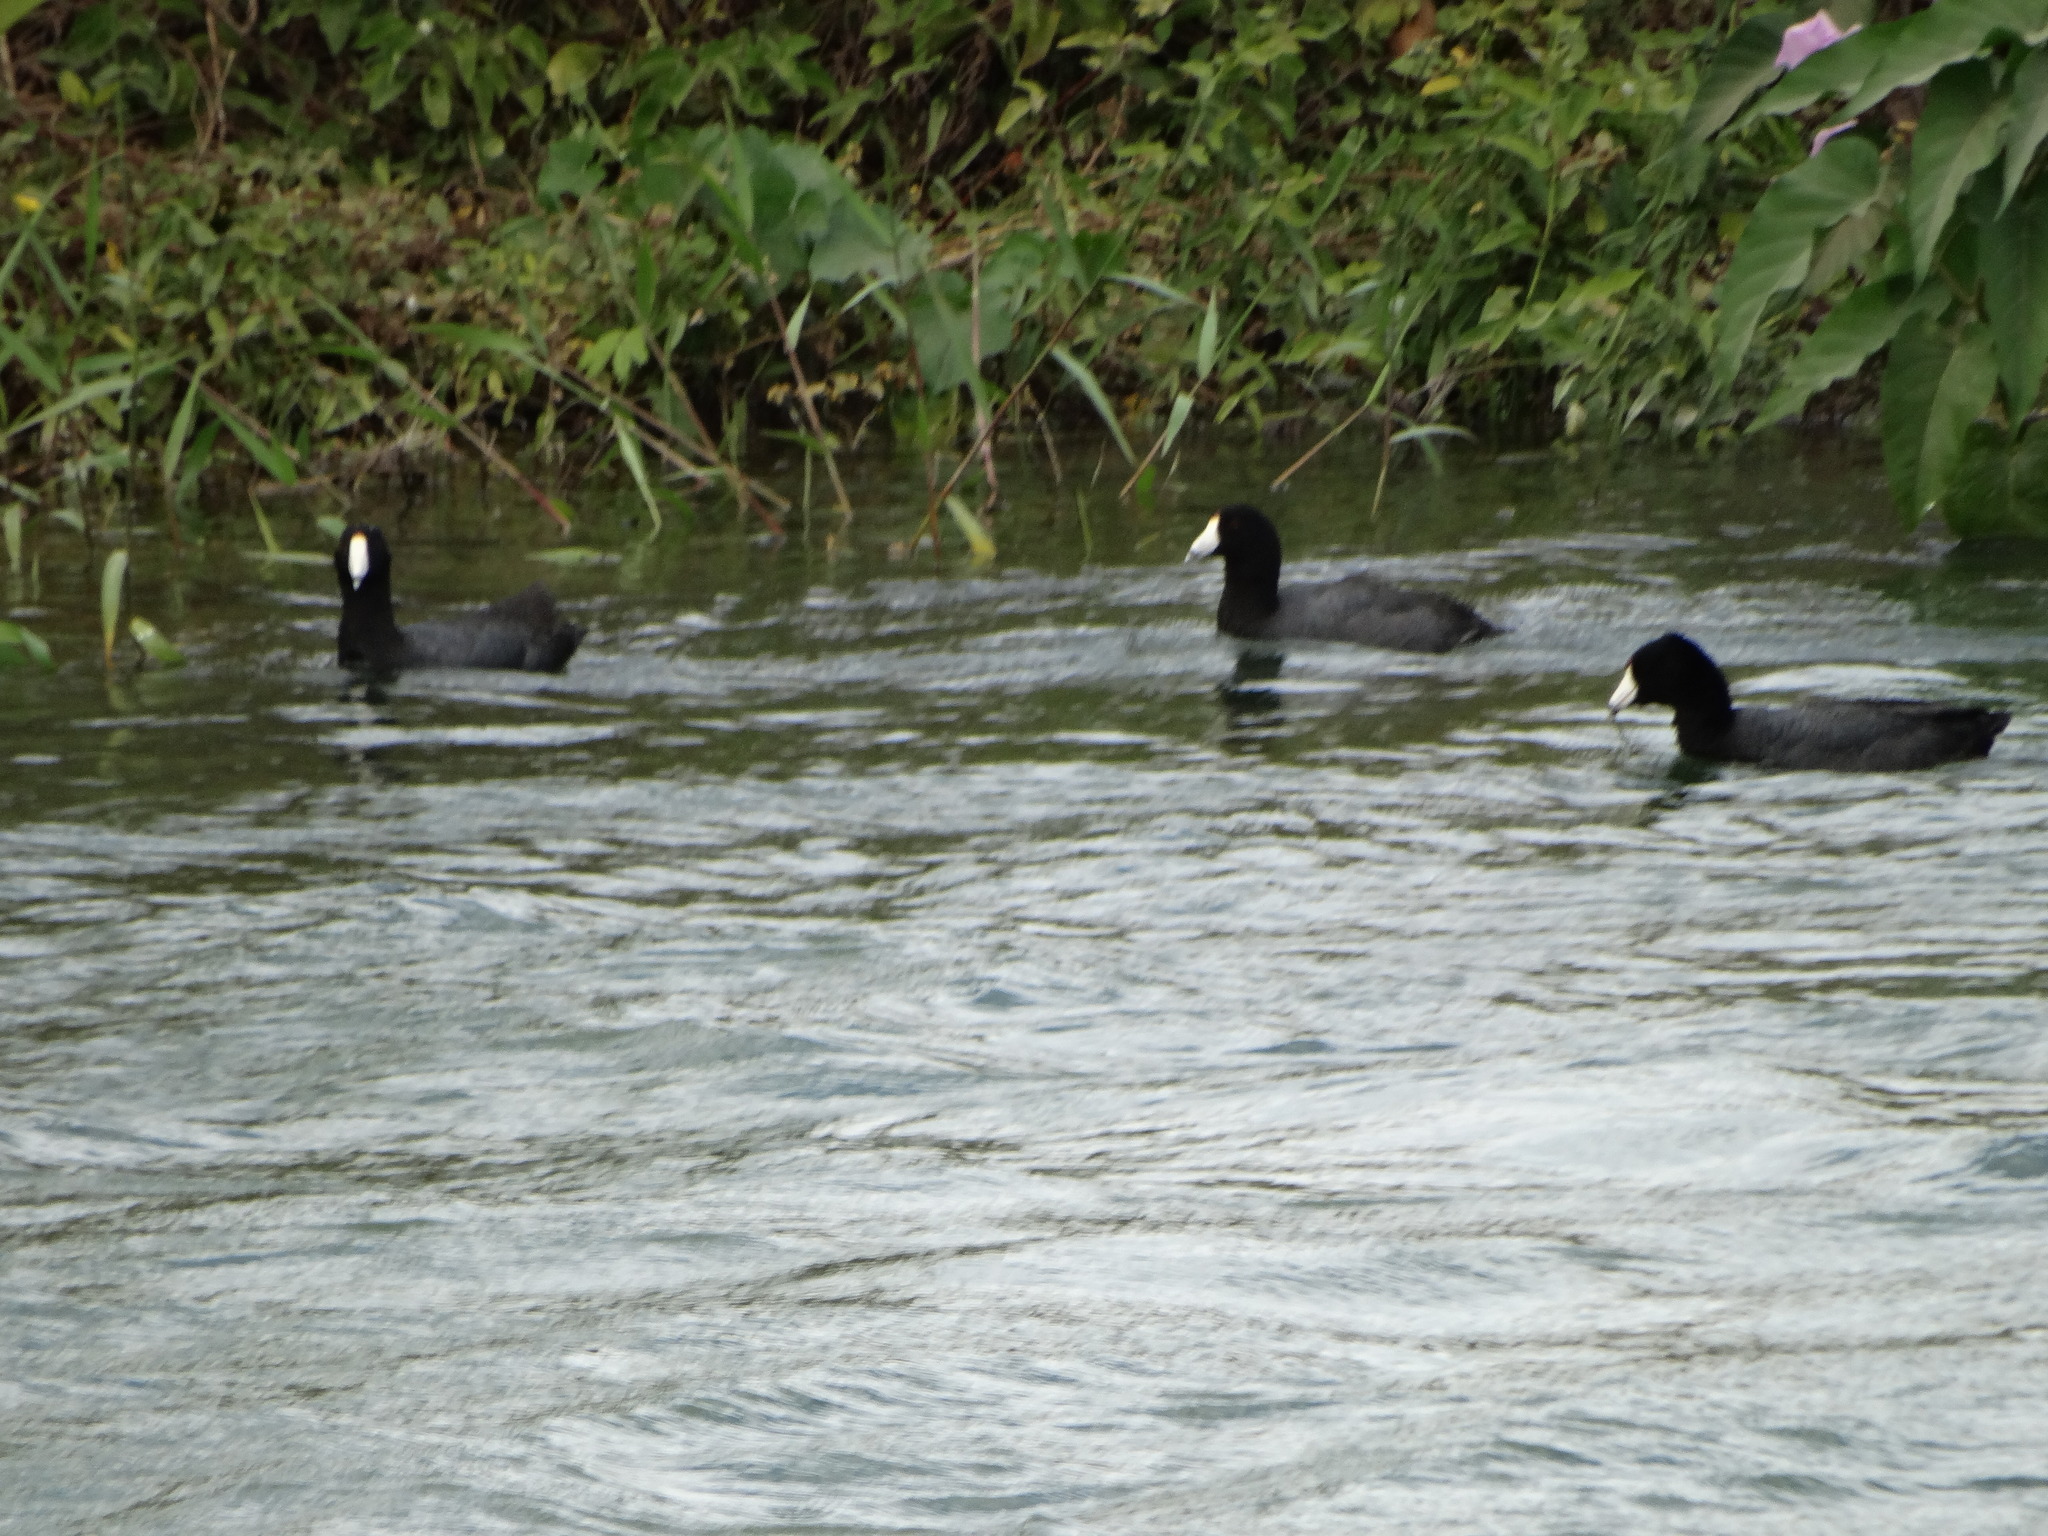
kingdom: Animalia
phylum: Chordata
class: Aves
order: Gruiformes
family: Rallidae
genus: Fulica
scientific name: Fulica americana
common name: American coot
